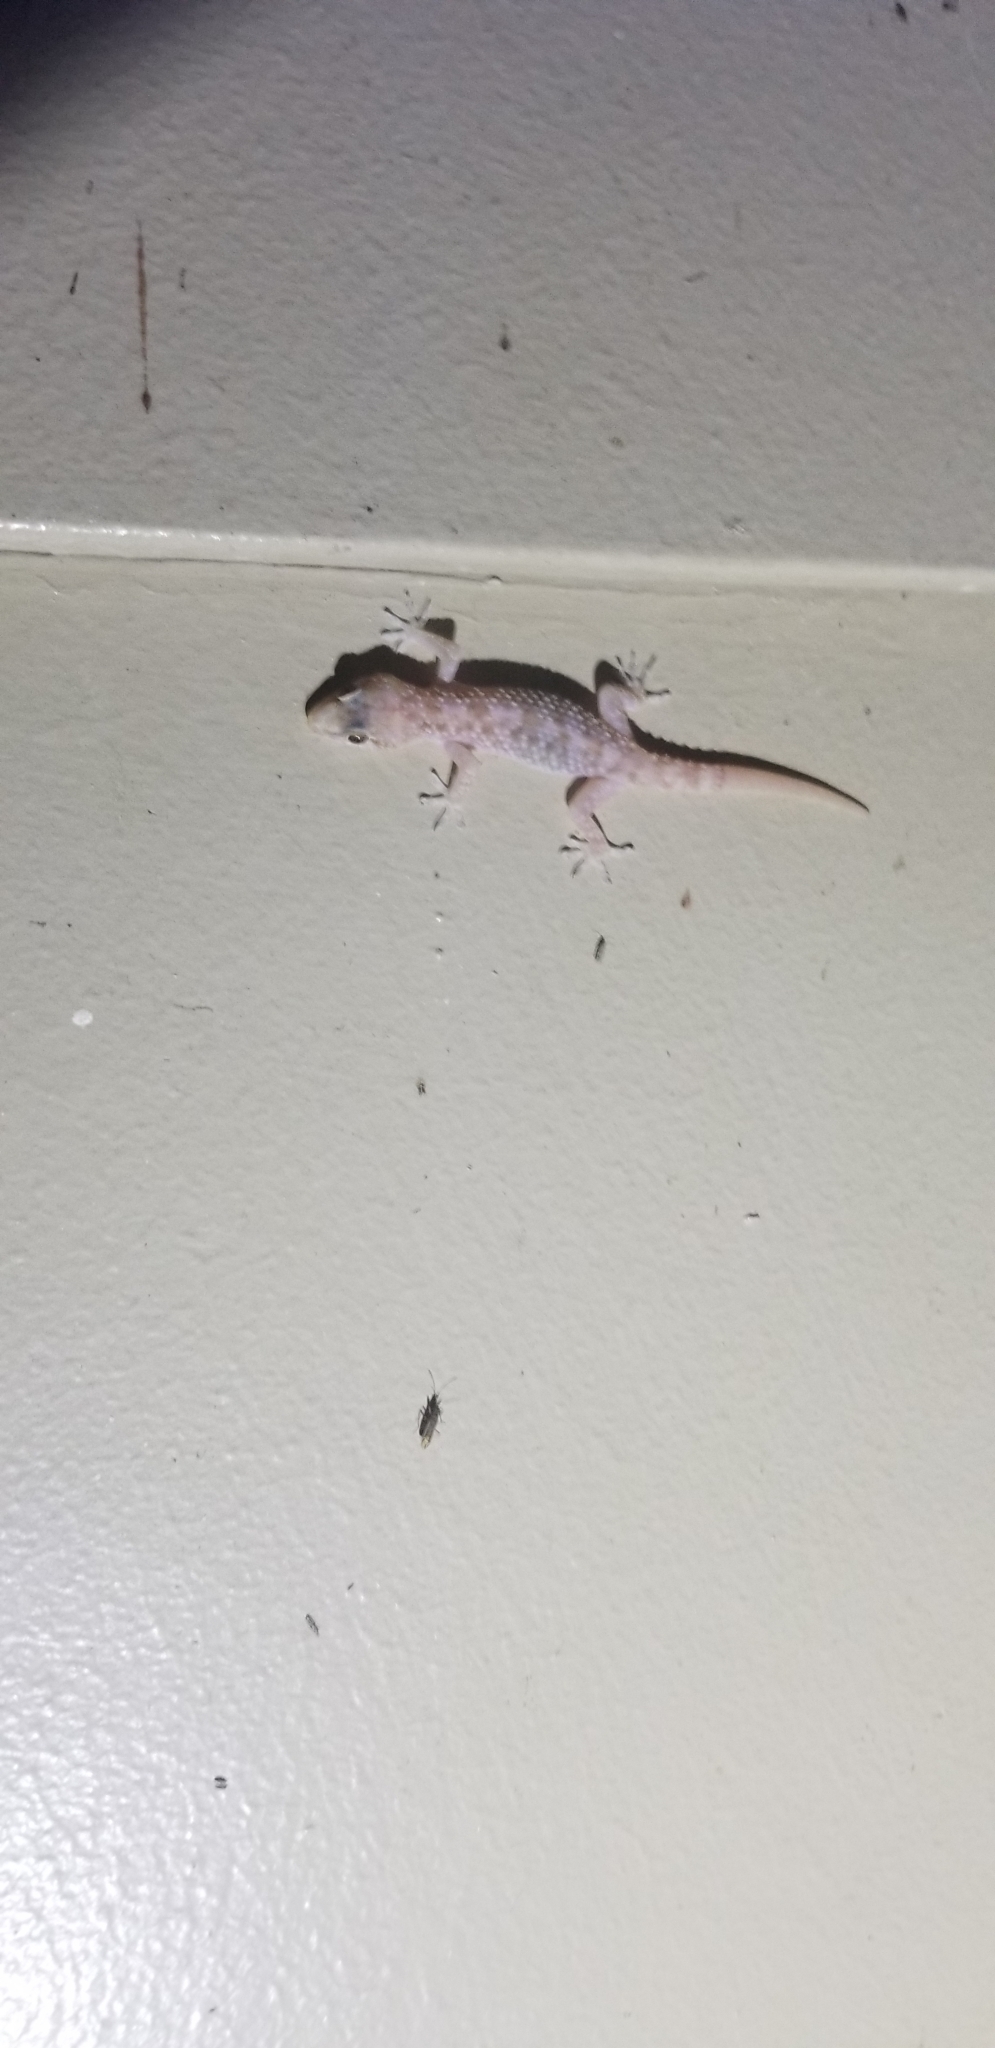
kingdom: Animalia
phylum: Chordata
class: Squamata
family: Gekkonidae
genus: Hemidactylus
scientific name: Hemidactylus turcicus
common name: Turkish gecko
